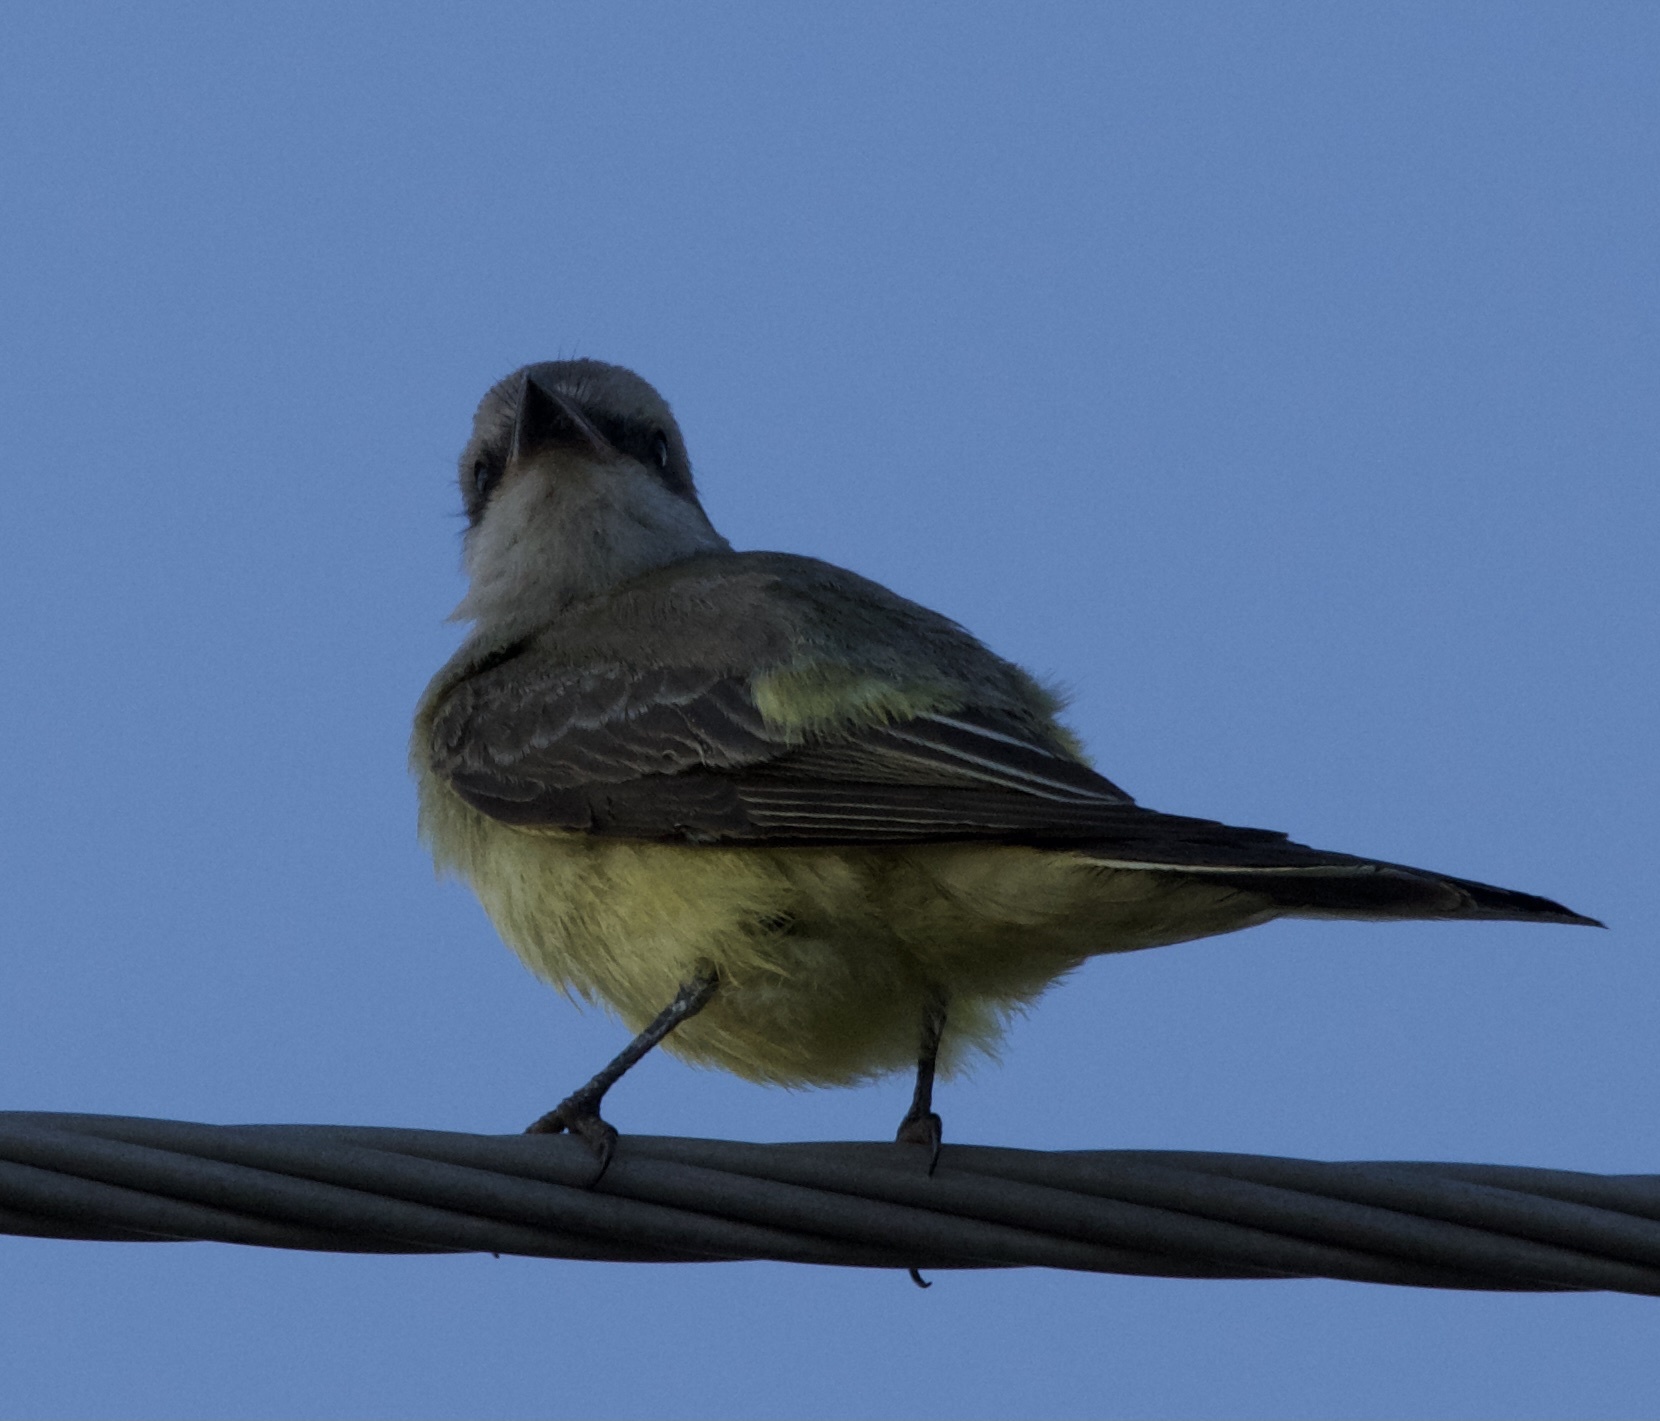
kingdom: Animalia
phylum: Chordata
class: Aves
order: Passeriformes
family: Tyrannidae
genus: Tyrannus
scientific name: Tyrannus verticalis
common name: Western kingbird
